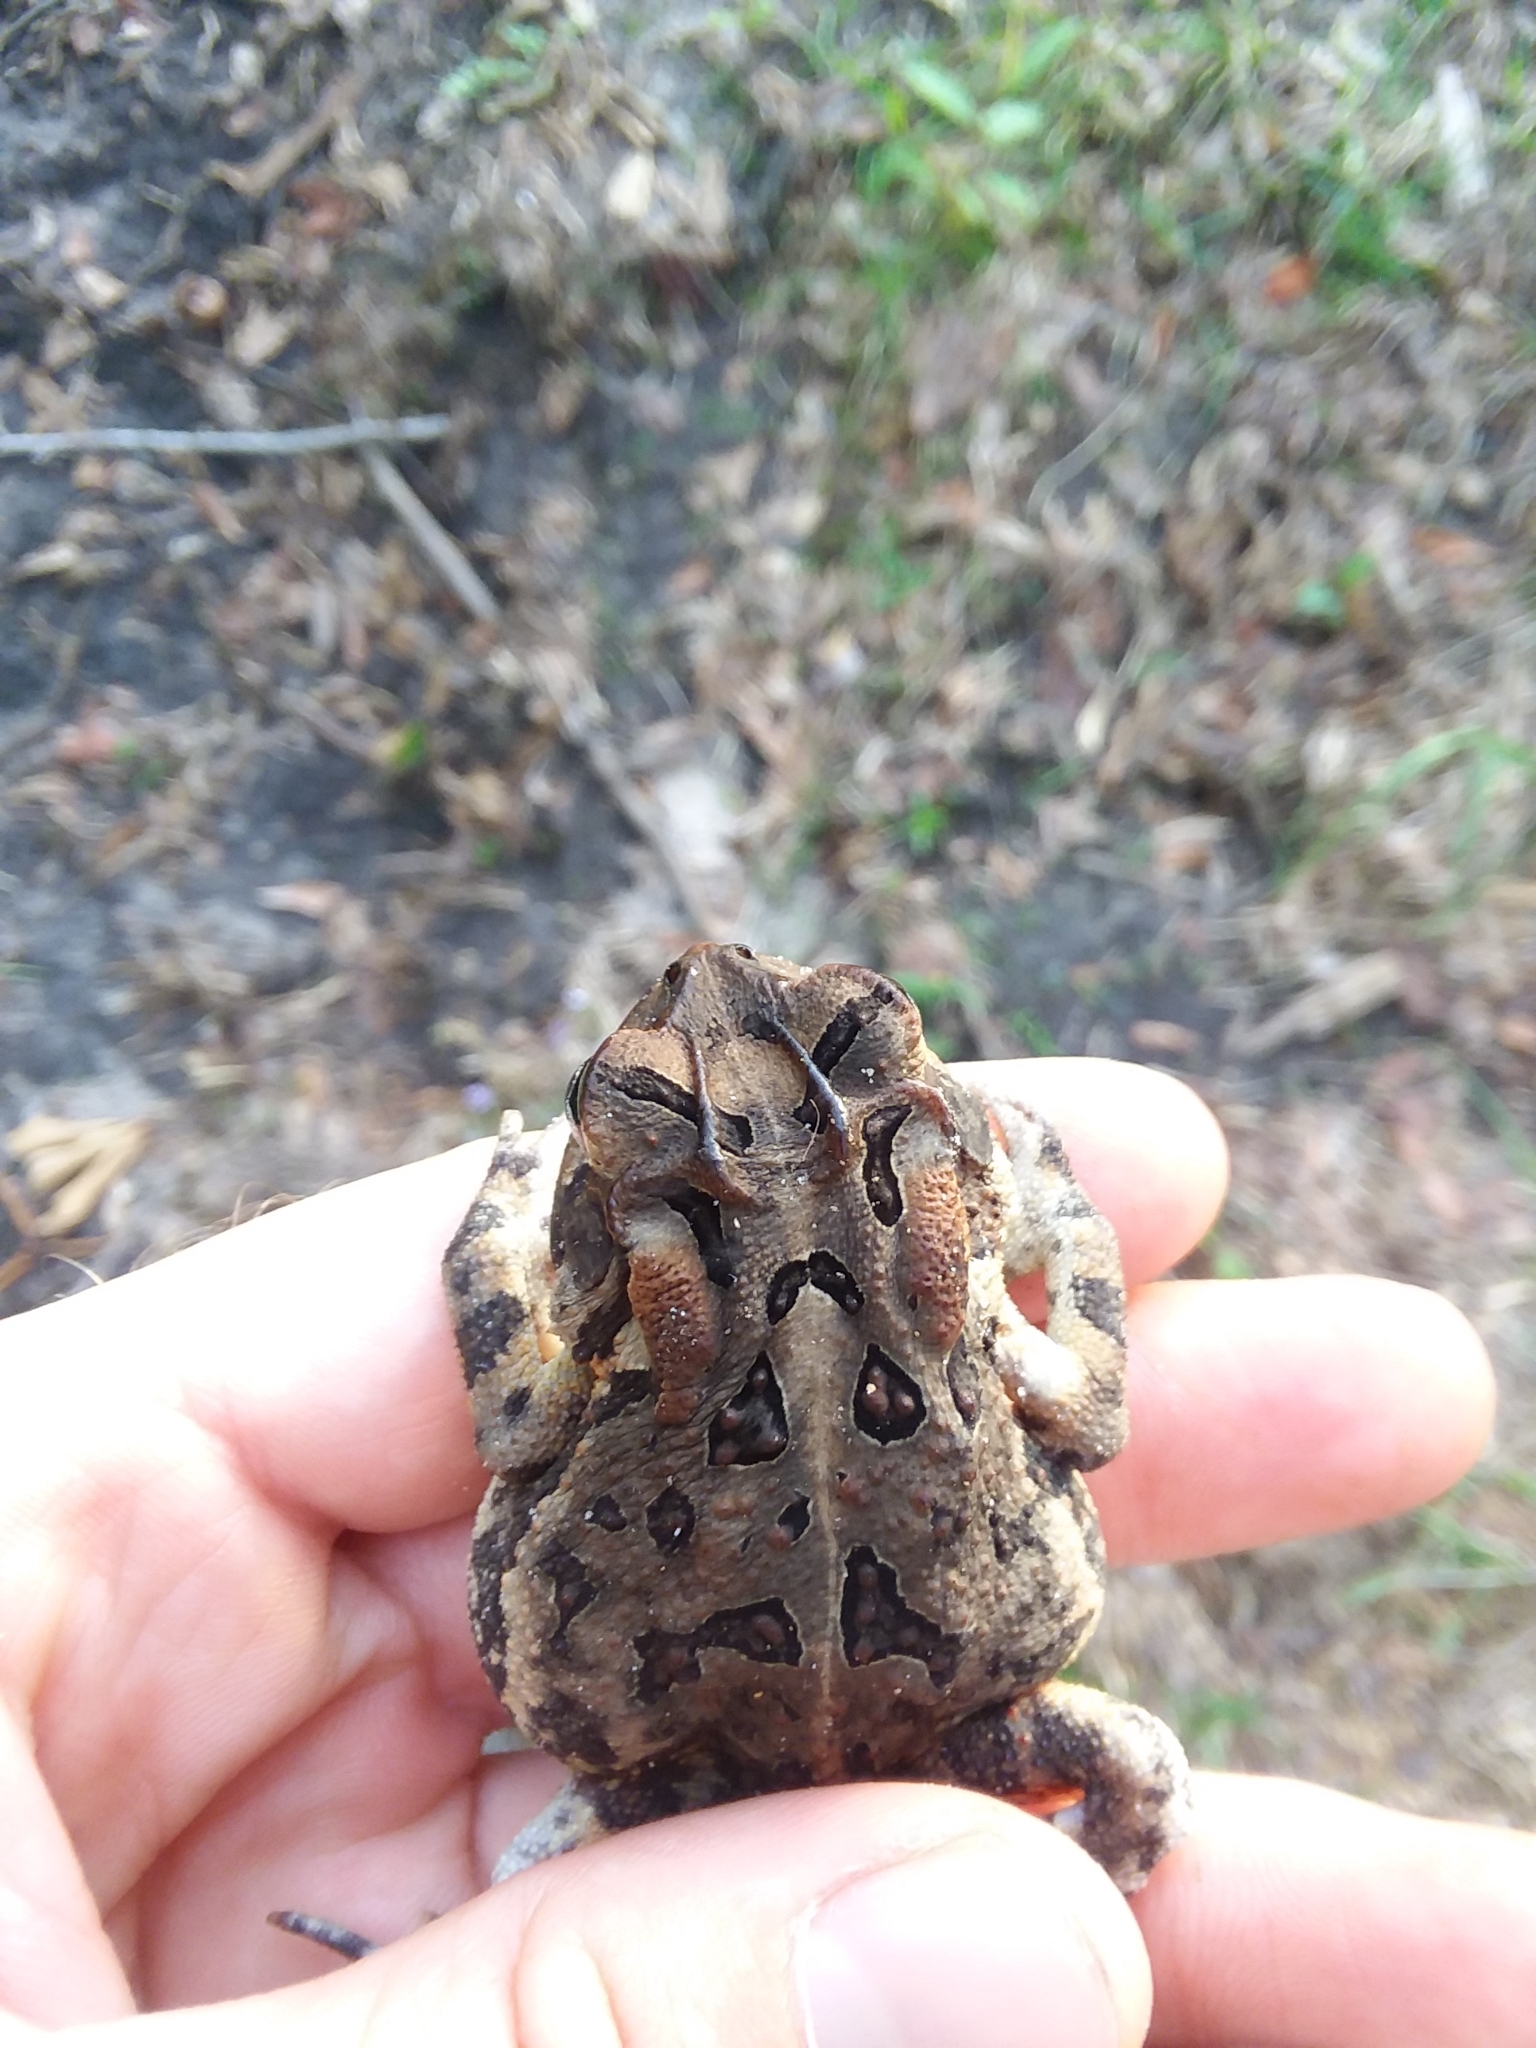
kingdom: Animalia
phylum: Chordata
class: Amphibia
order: Anura
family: Bufonidae
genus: Anaxyrus
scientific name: Anaxyrus terrestris
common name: Southern toad
